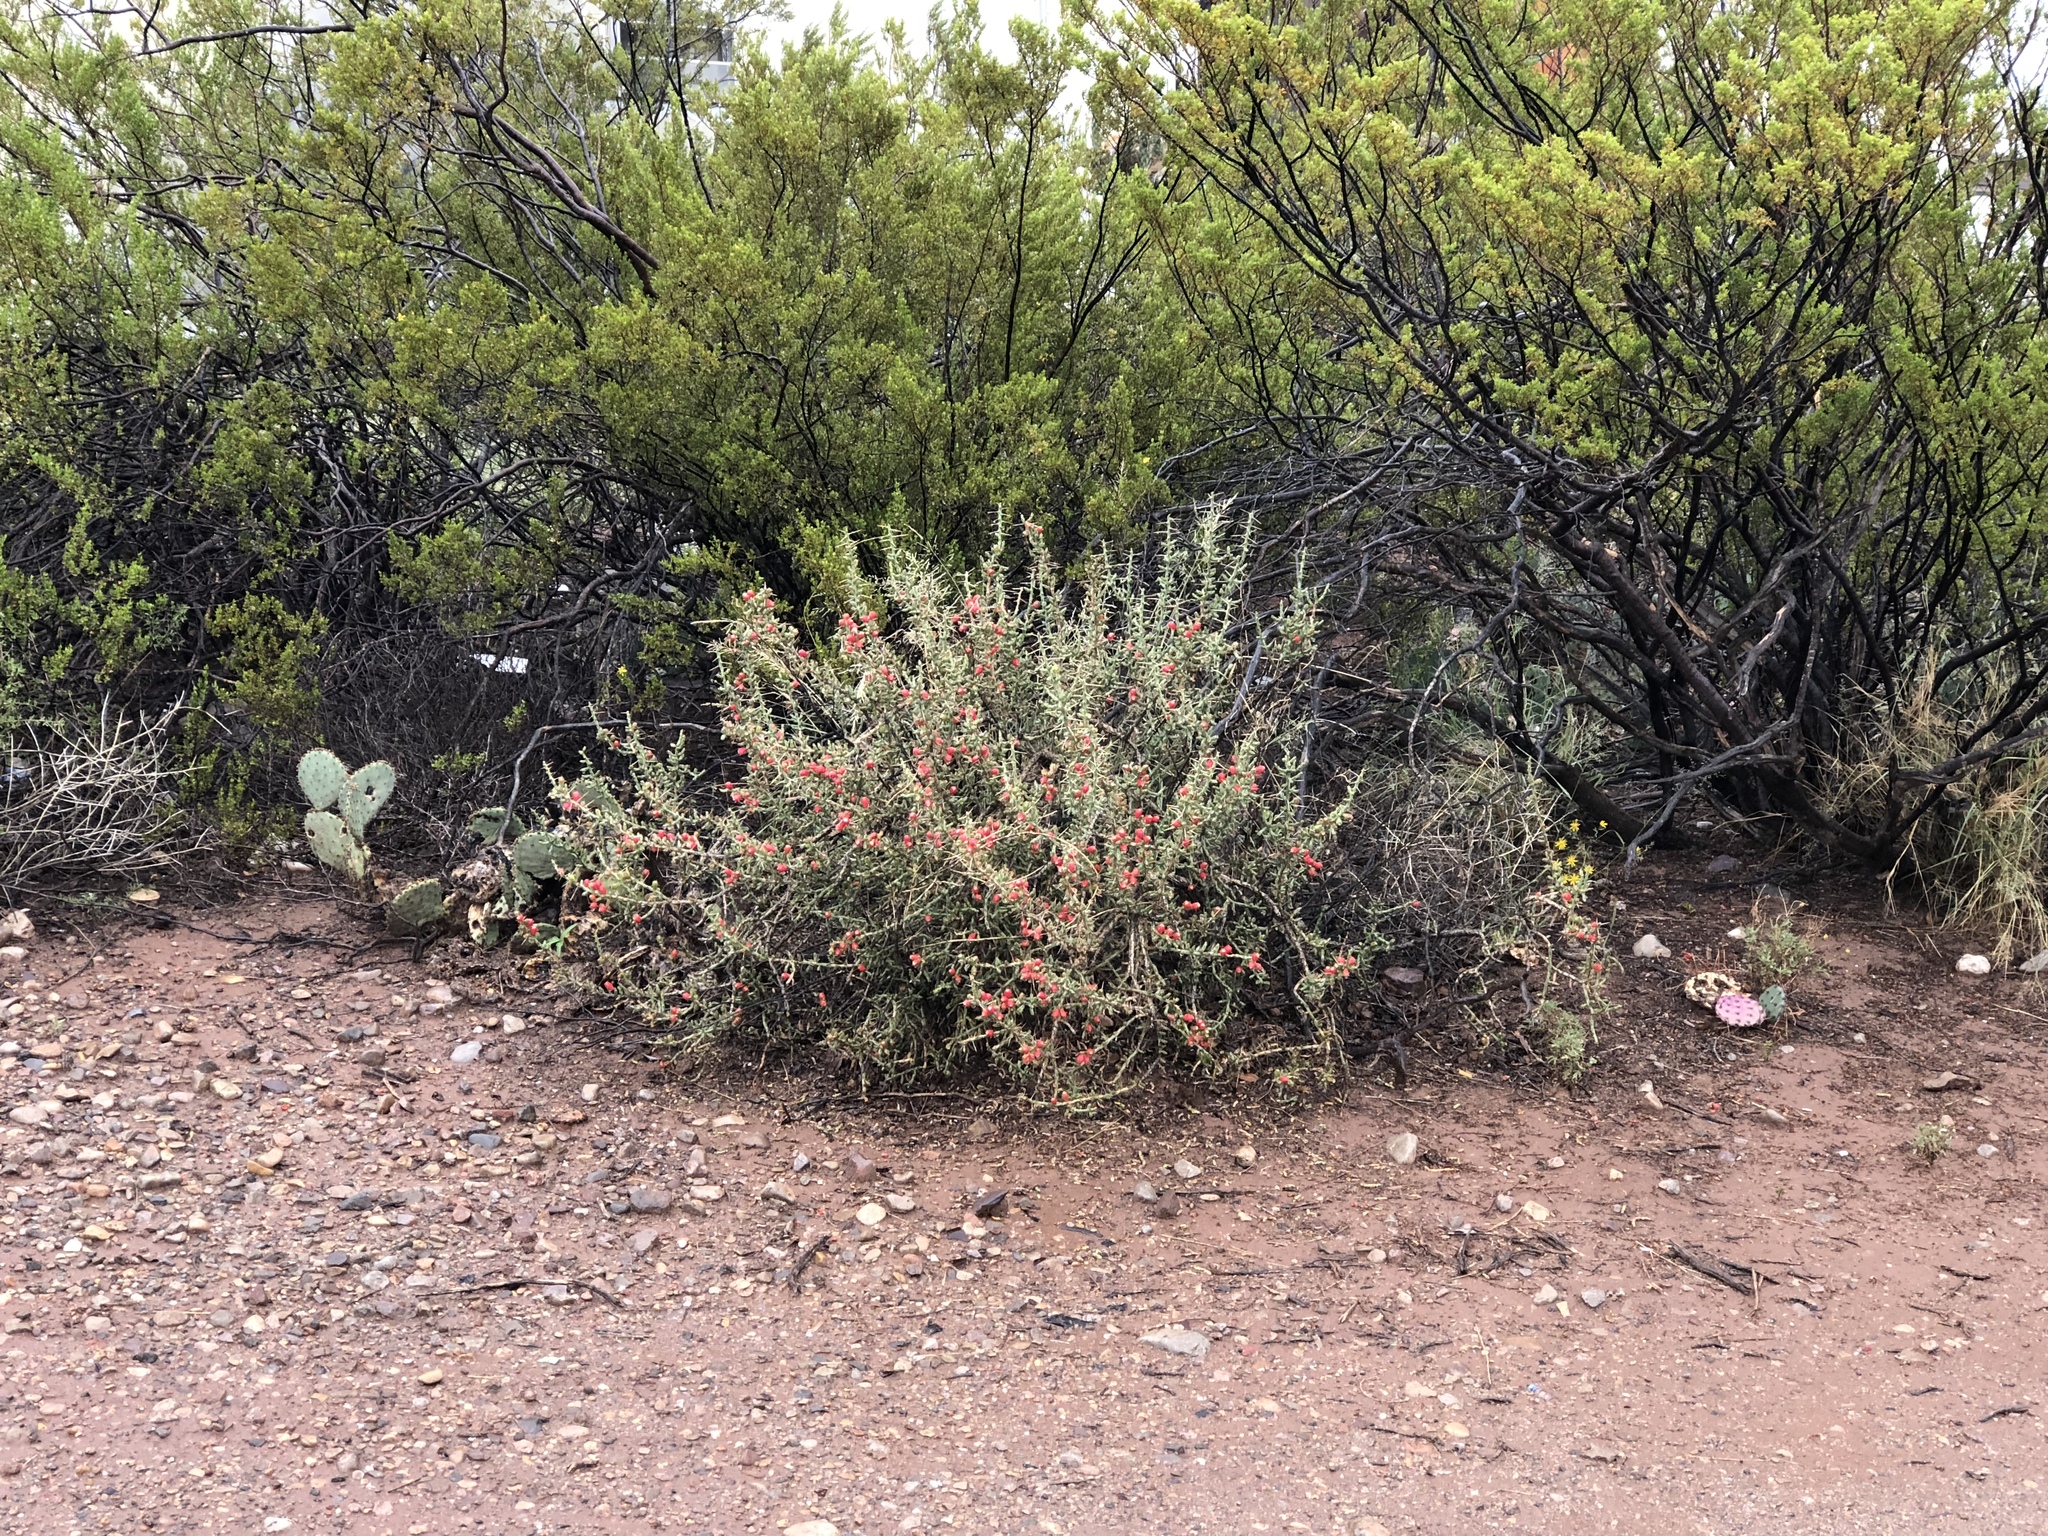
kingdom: Plantae
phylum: Tracheophyta
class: Magnoliopsida
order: Caryophyllales
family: Cactaceae
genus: Cylindropuntia
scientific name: Cylindropuntia leptocaulis
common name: Christmas cactus
